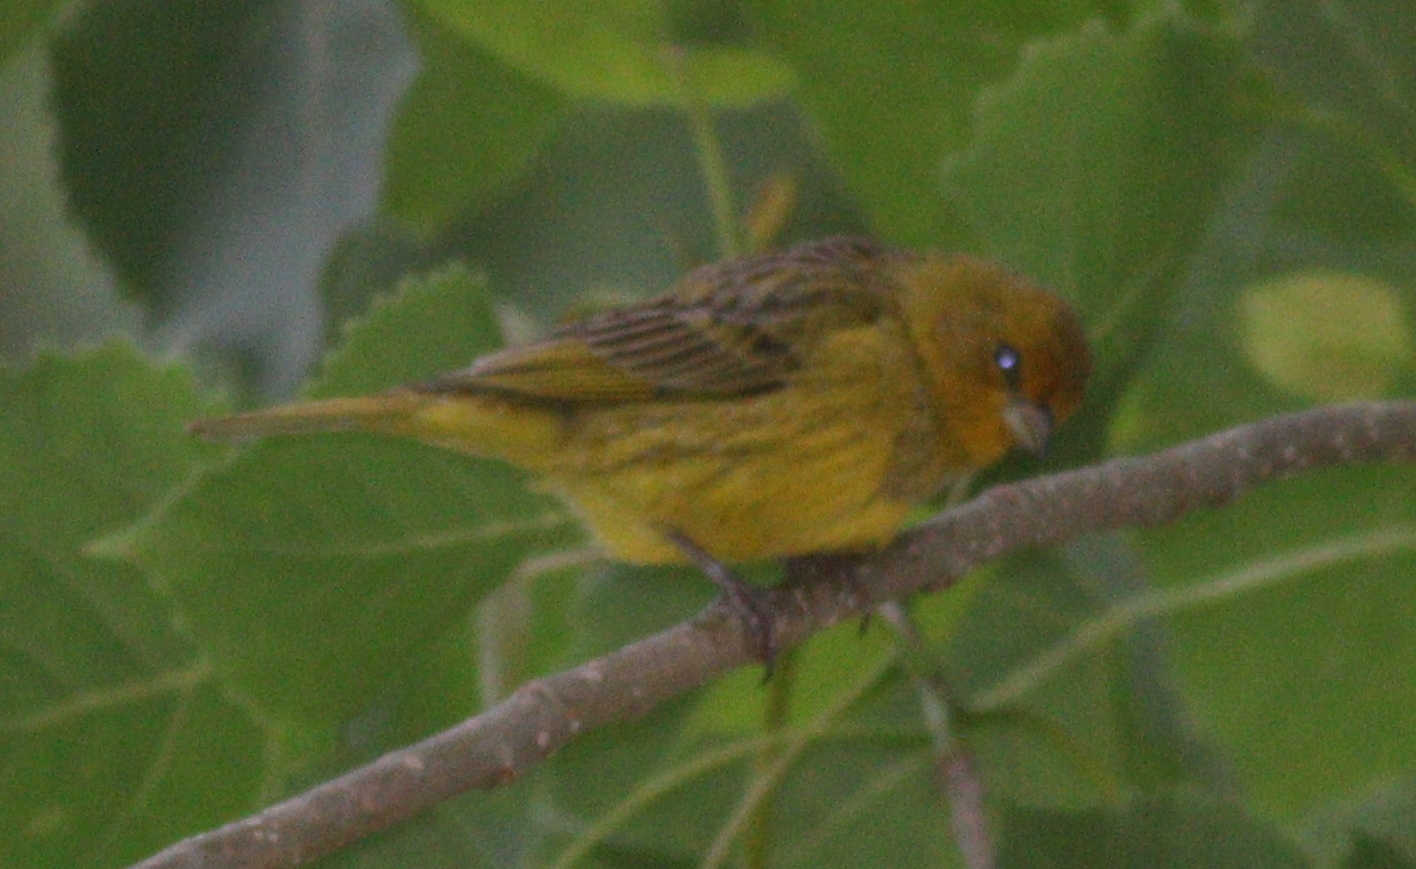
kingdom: Animalia
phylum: Chordata
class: Aves
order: Passeriformes
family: Thraupidae
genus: Sicalis
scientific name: Sicalis flaveola
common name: Saffron finch
